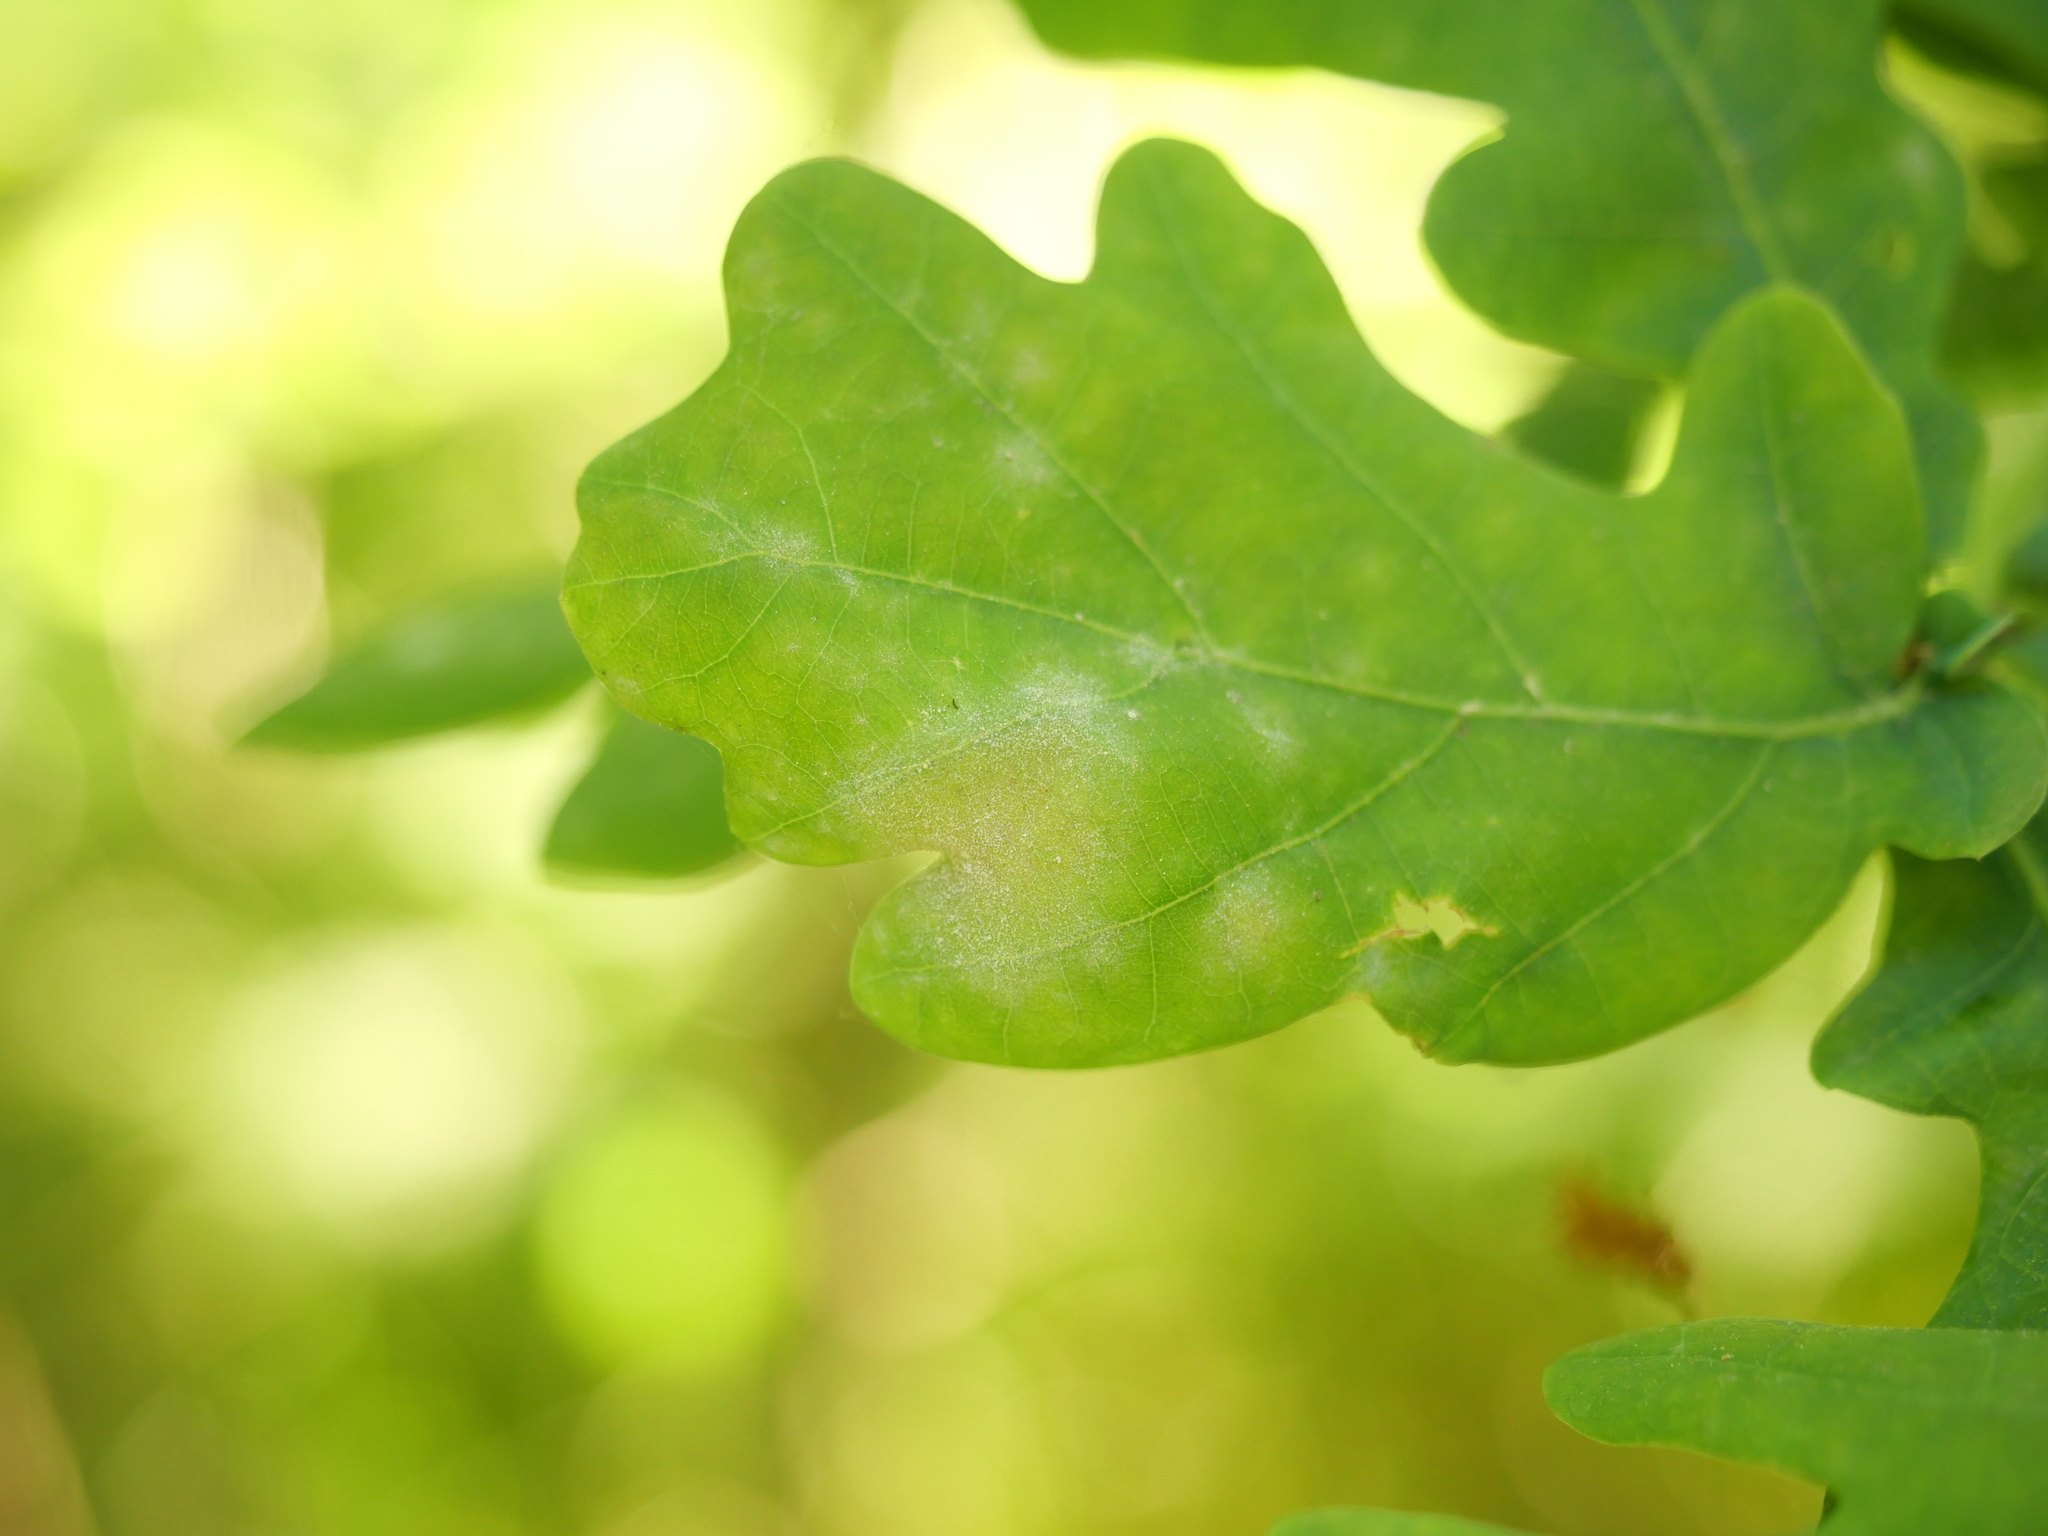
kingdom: Fungi
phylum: Ascomycota
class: Leotiomycetes
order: Helotiales
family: Erysiphaceae
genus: Erysiphe
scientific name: Erysiphe
